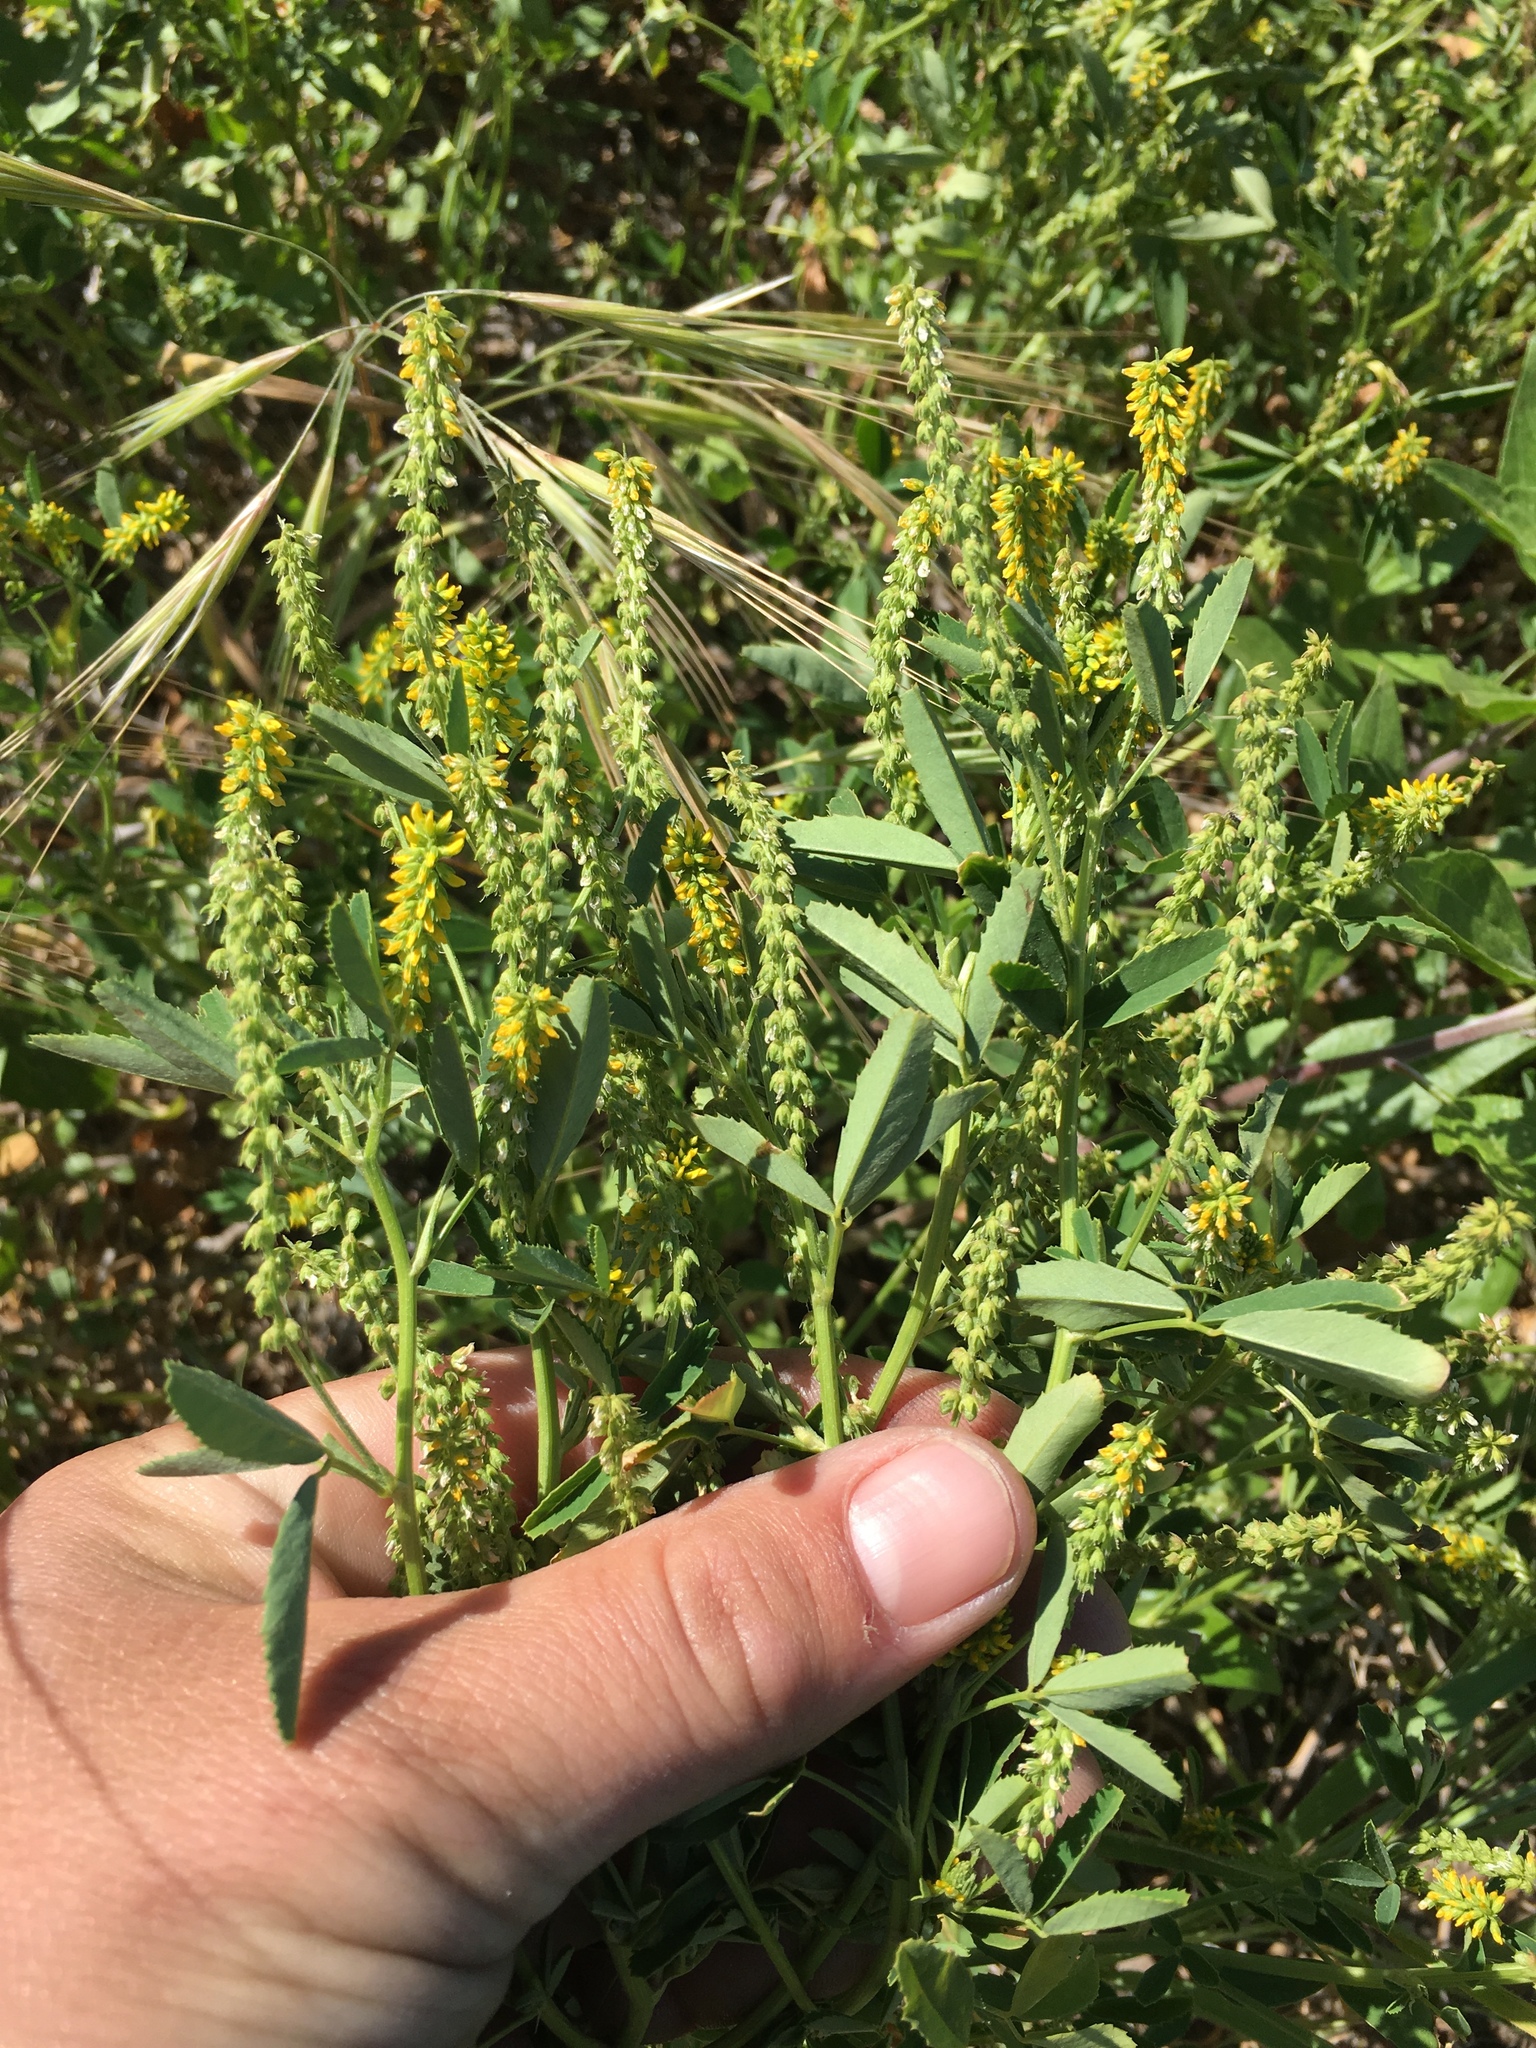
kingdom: Plantae
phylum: Tracheophyta
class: Magnoliopsida
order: Fabales
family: Fabaceae
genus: Melilotus
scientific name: Melilotus indicus
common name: Small melilot
